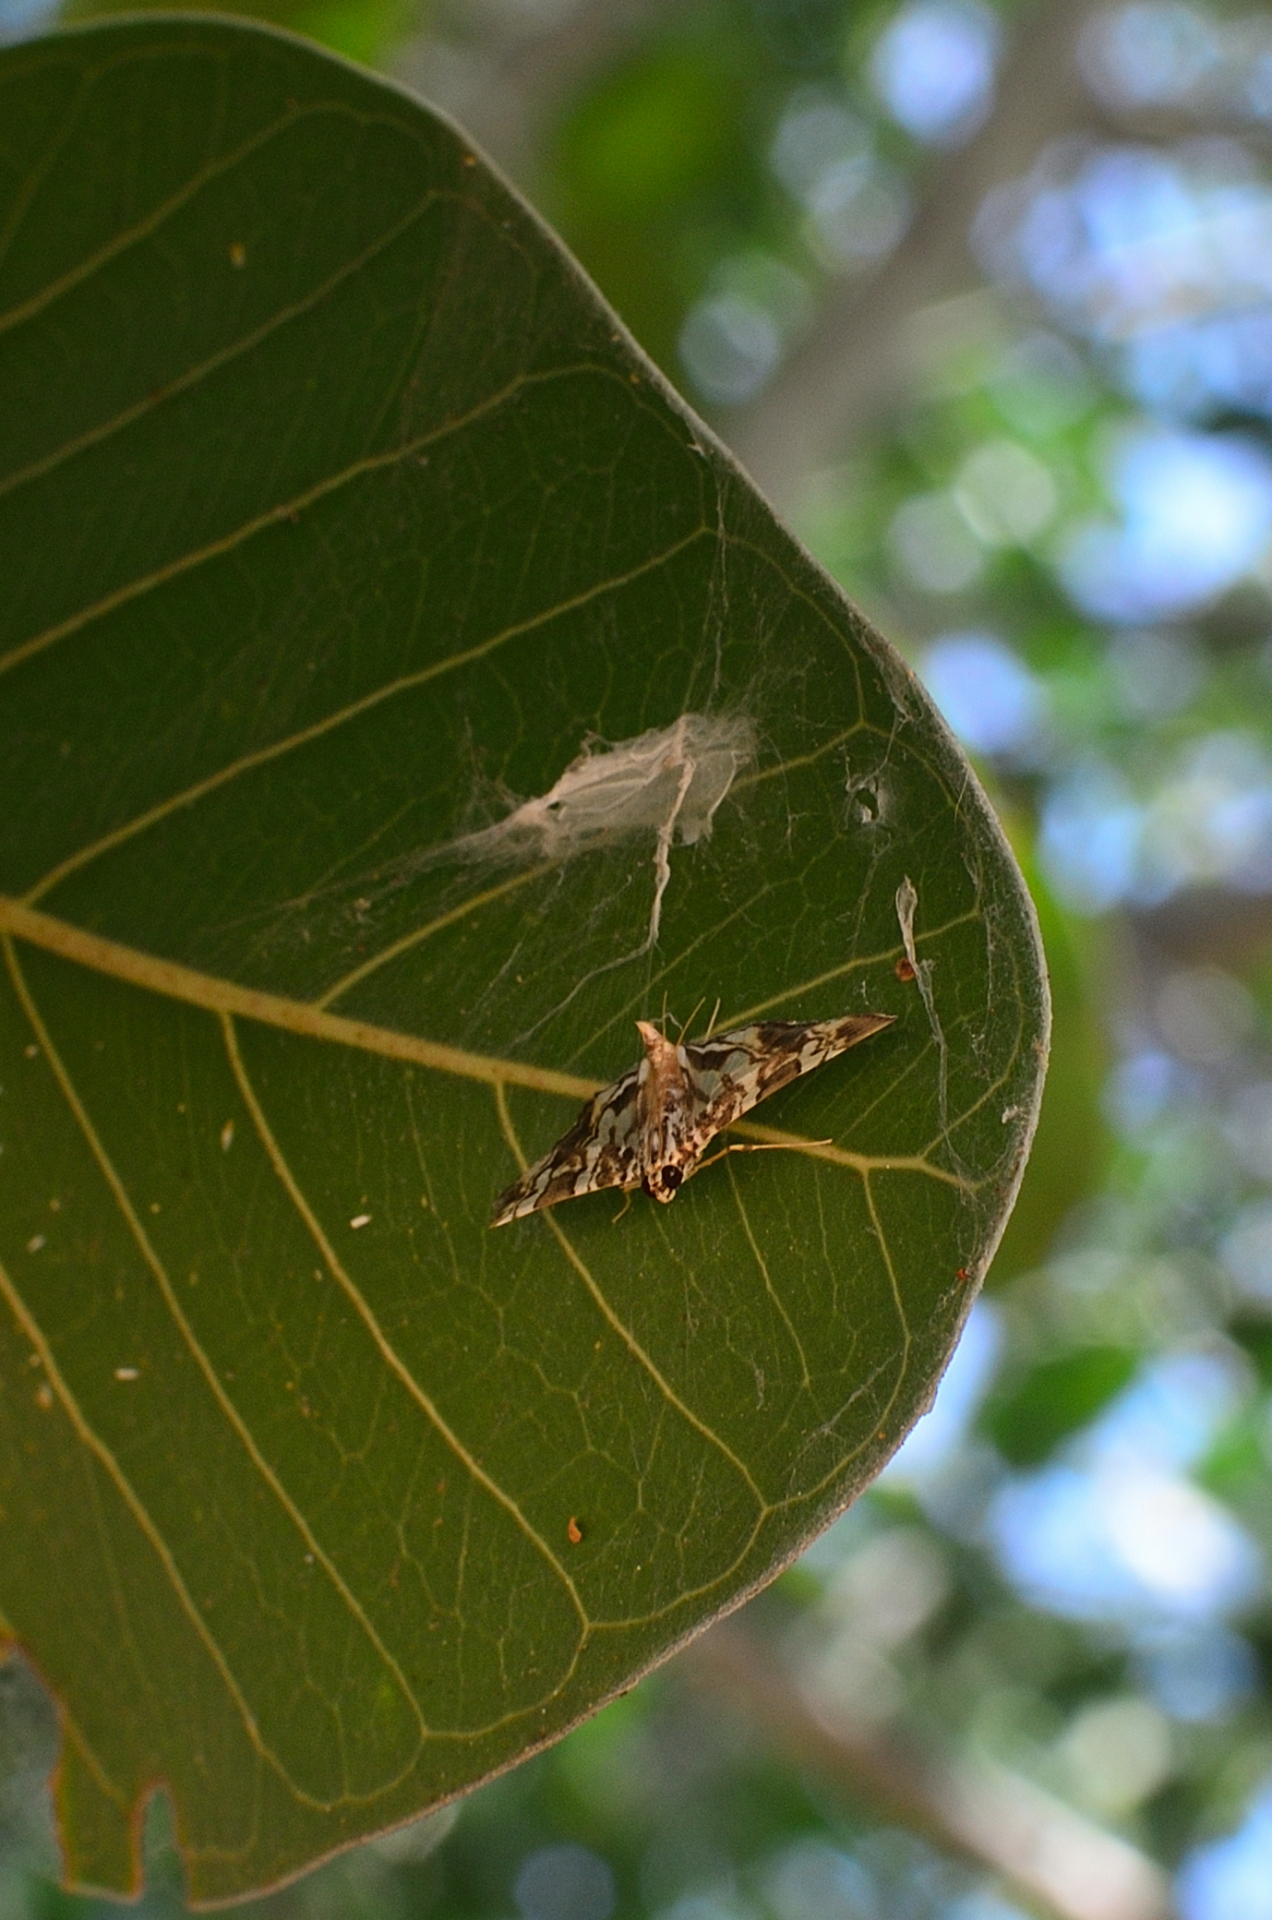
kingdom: Animalia
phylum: Arthropoda
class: Insecta
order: Lepidoptera
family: Crambidae
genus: Chabula
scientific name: Chabula acamasalis
